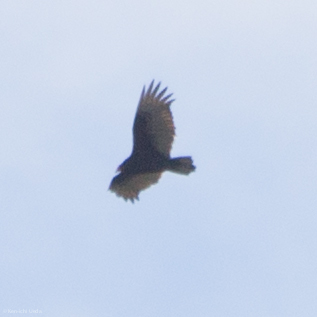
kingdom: Animalia
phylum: Chordata
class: Aves
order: Accipitriformes
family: Cathartidae
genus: Cathartes
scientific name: Cathartes aura
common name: Turkey vulture
